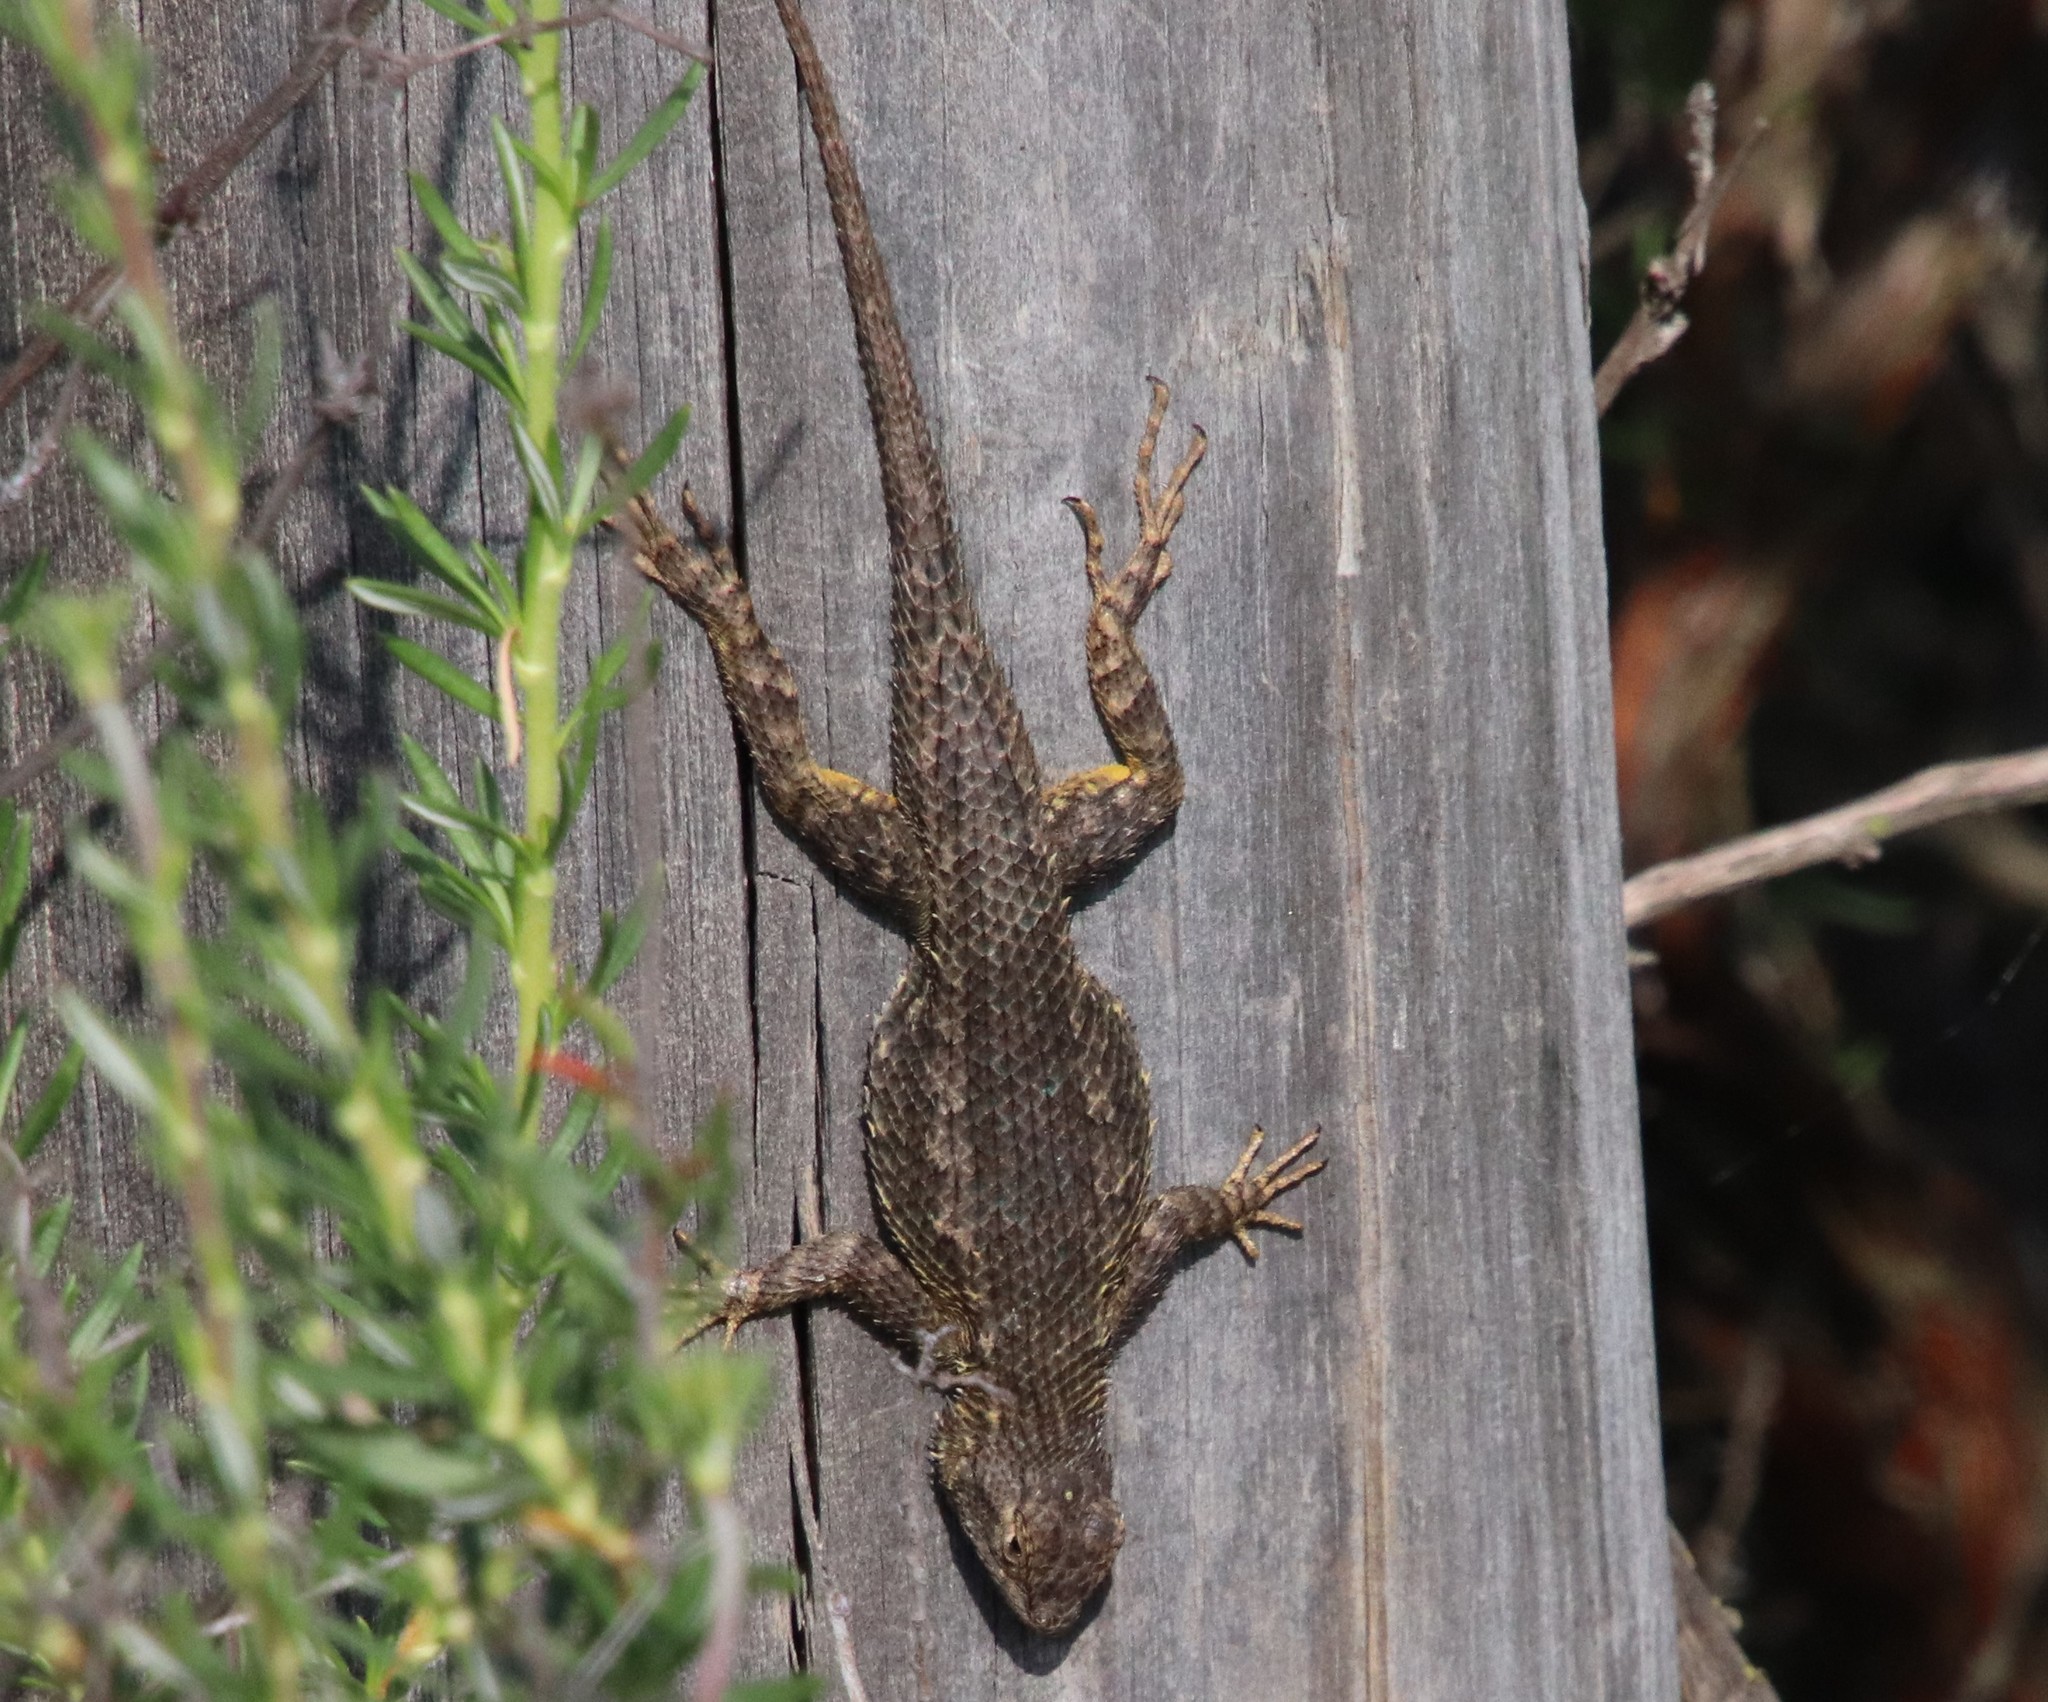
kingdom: Animalia
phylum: Chordata
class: Squamata
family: Phrynosomatidae
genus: Sceloporus
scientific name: Sceloporus occidentalis
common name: Western fence lizard
